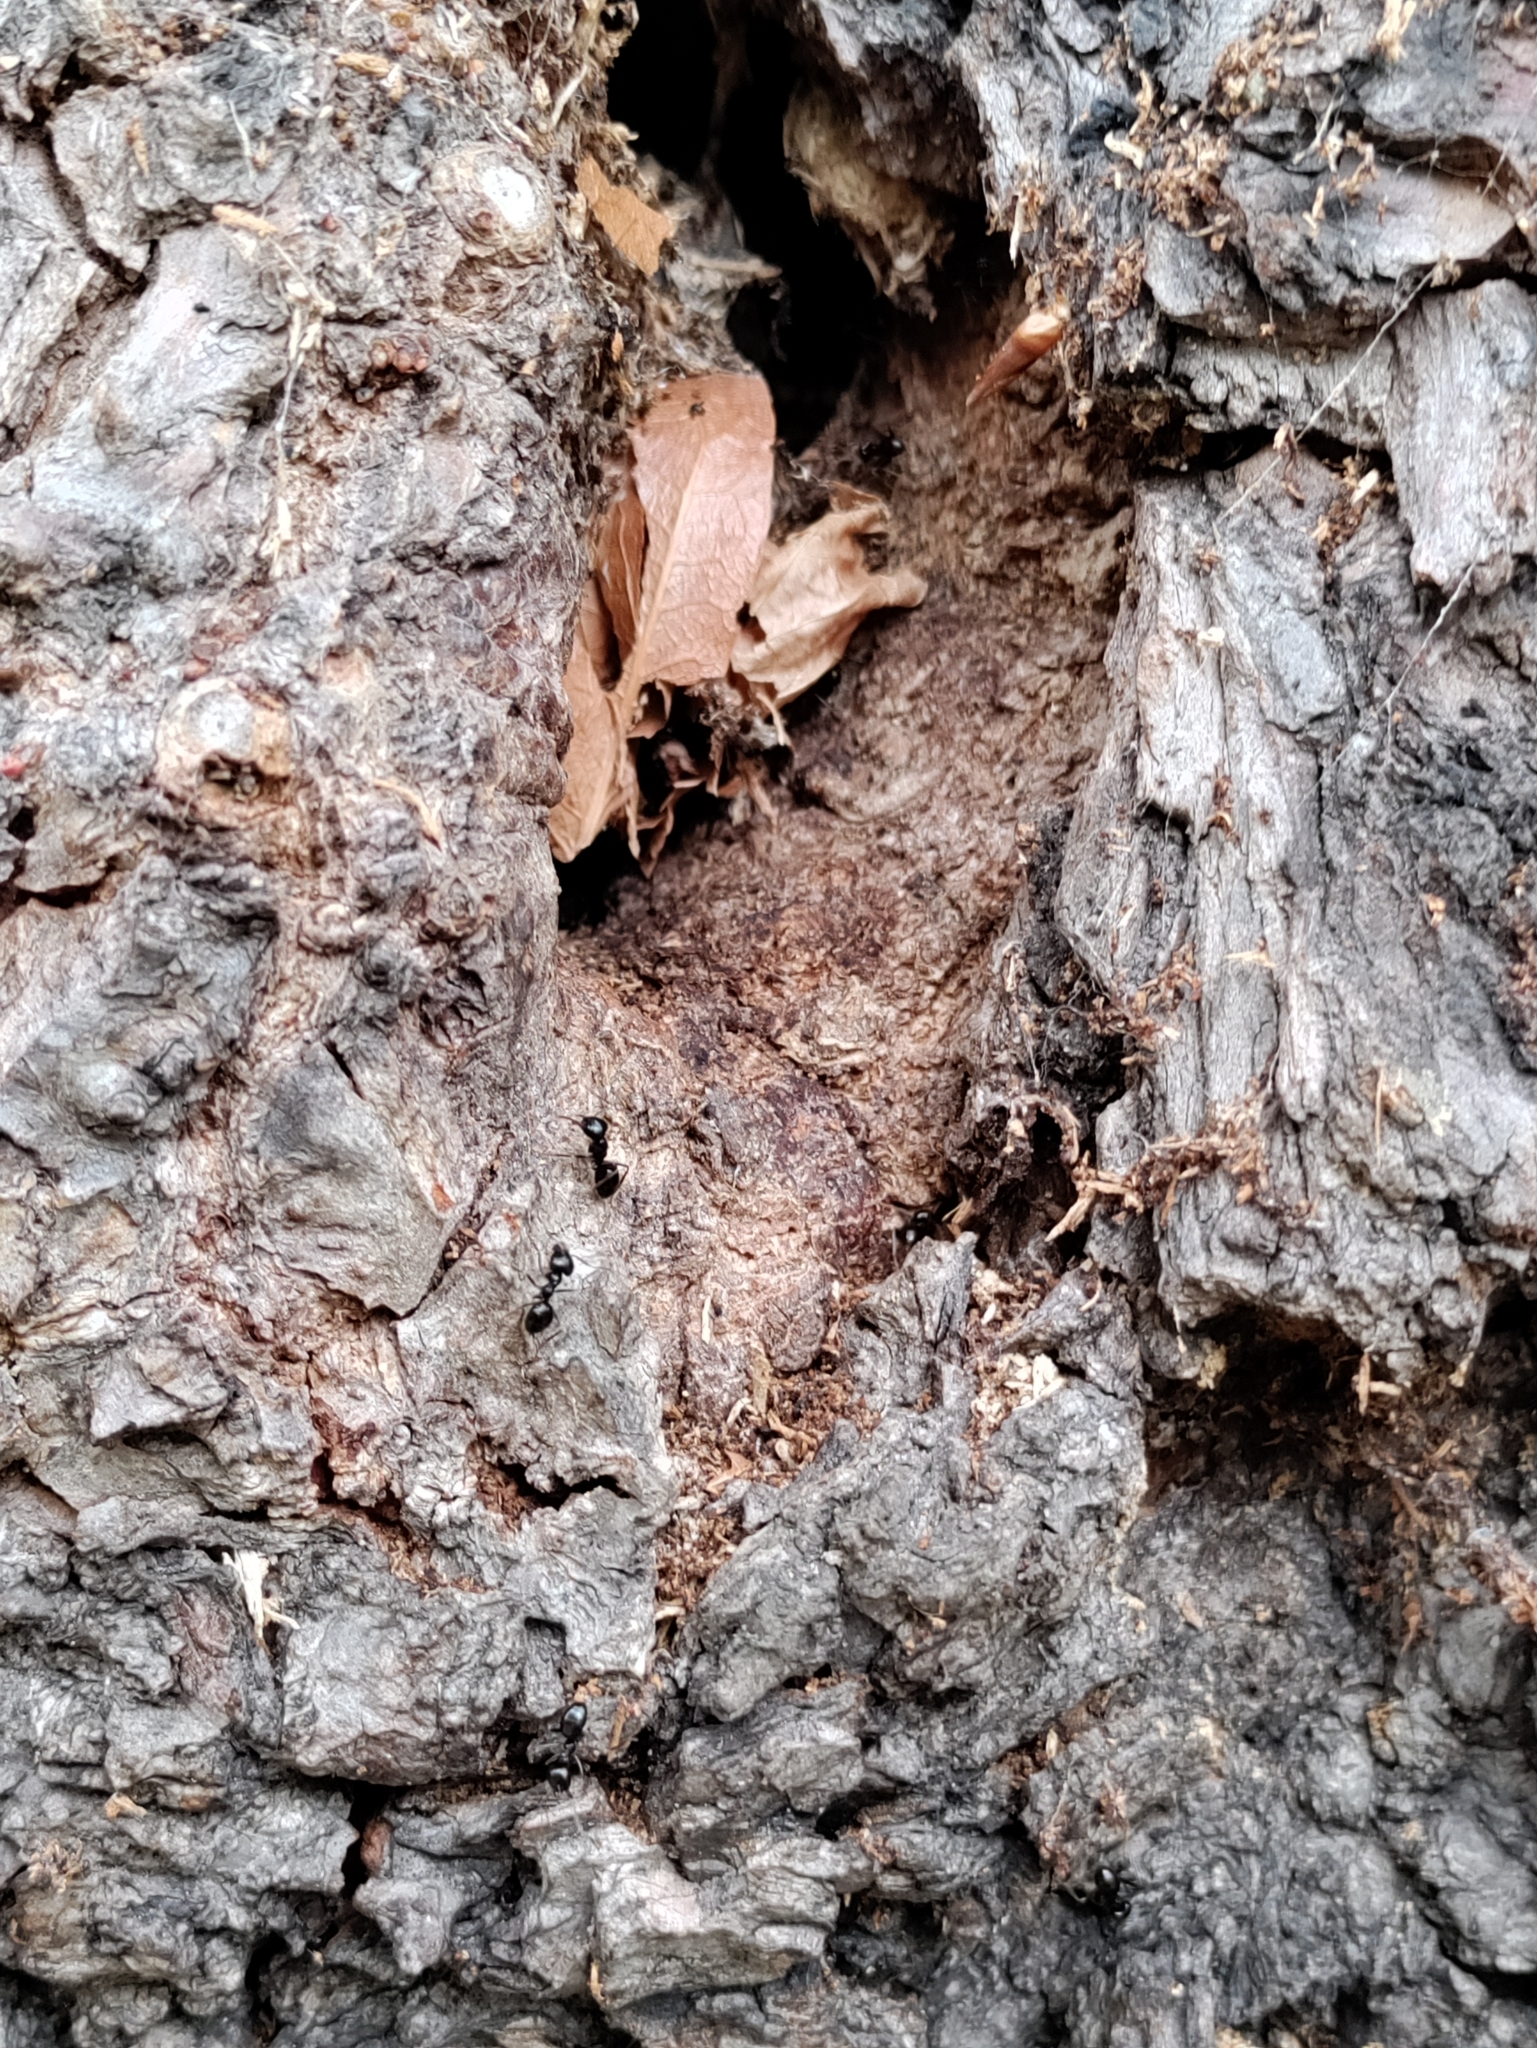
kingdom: Animalia
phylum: Arthropoda
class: Insecta
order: Hymenoptera
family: Formicidae
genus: Lasius
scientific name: Lasius fuliginosus
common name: Jet ant
